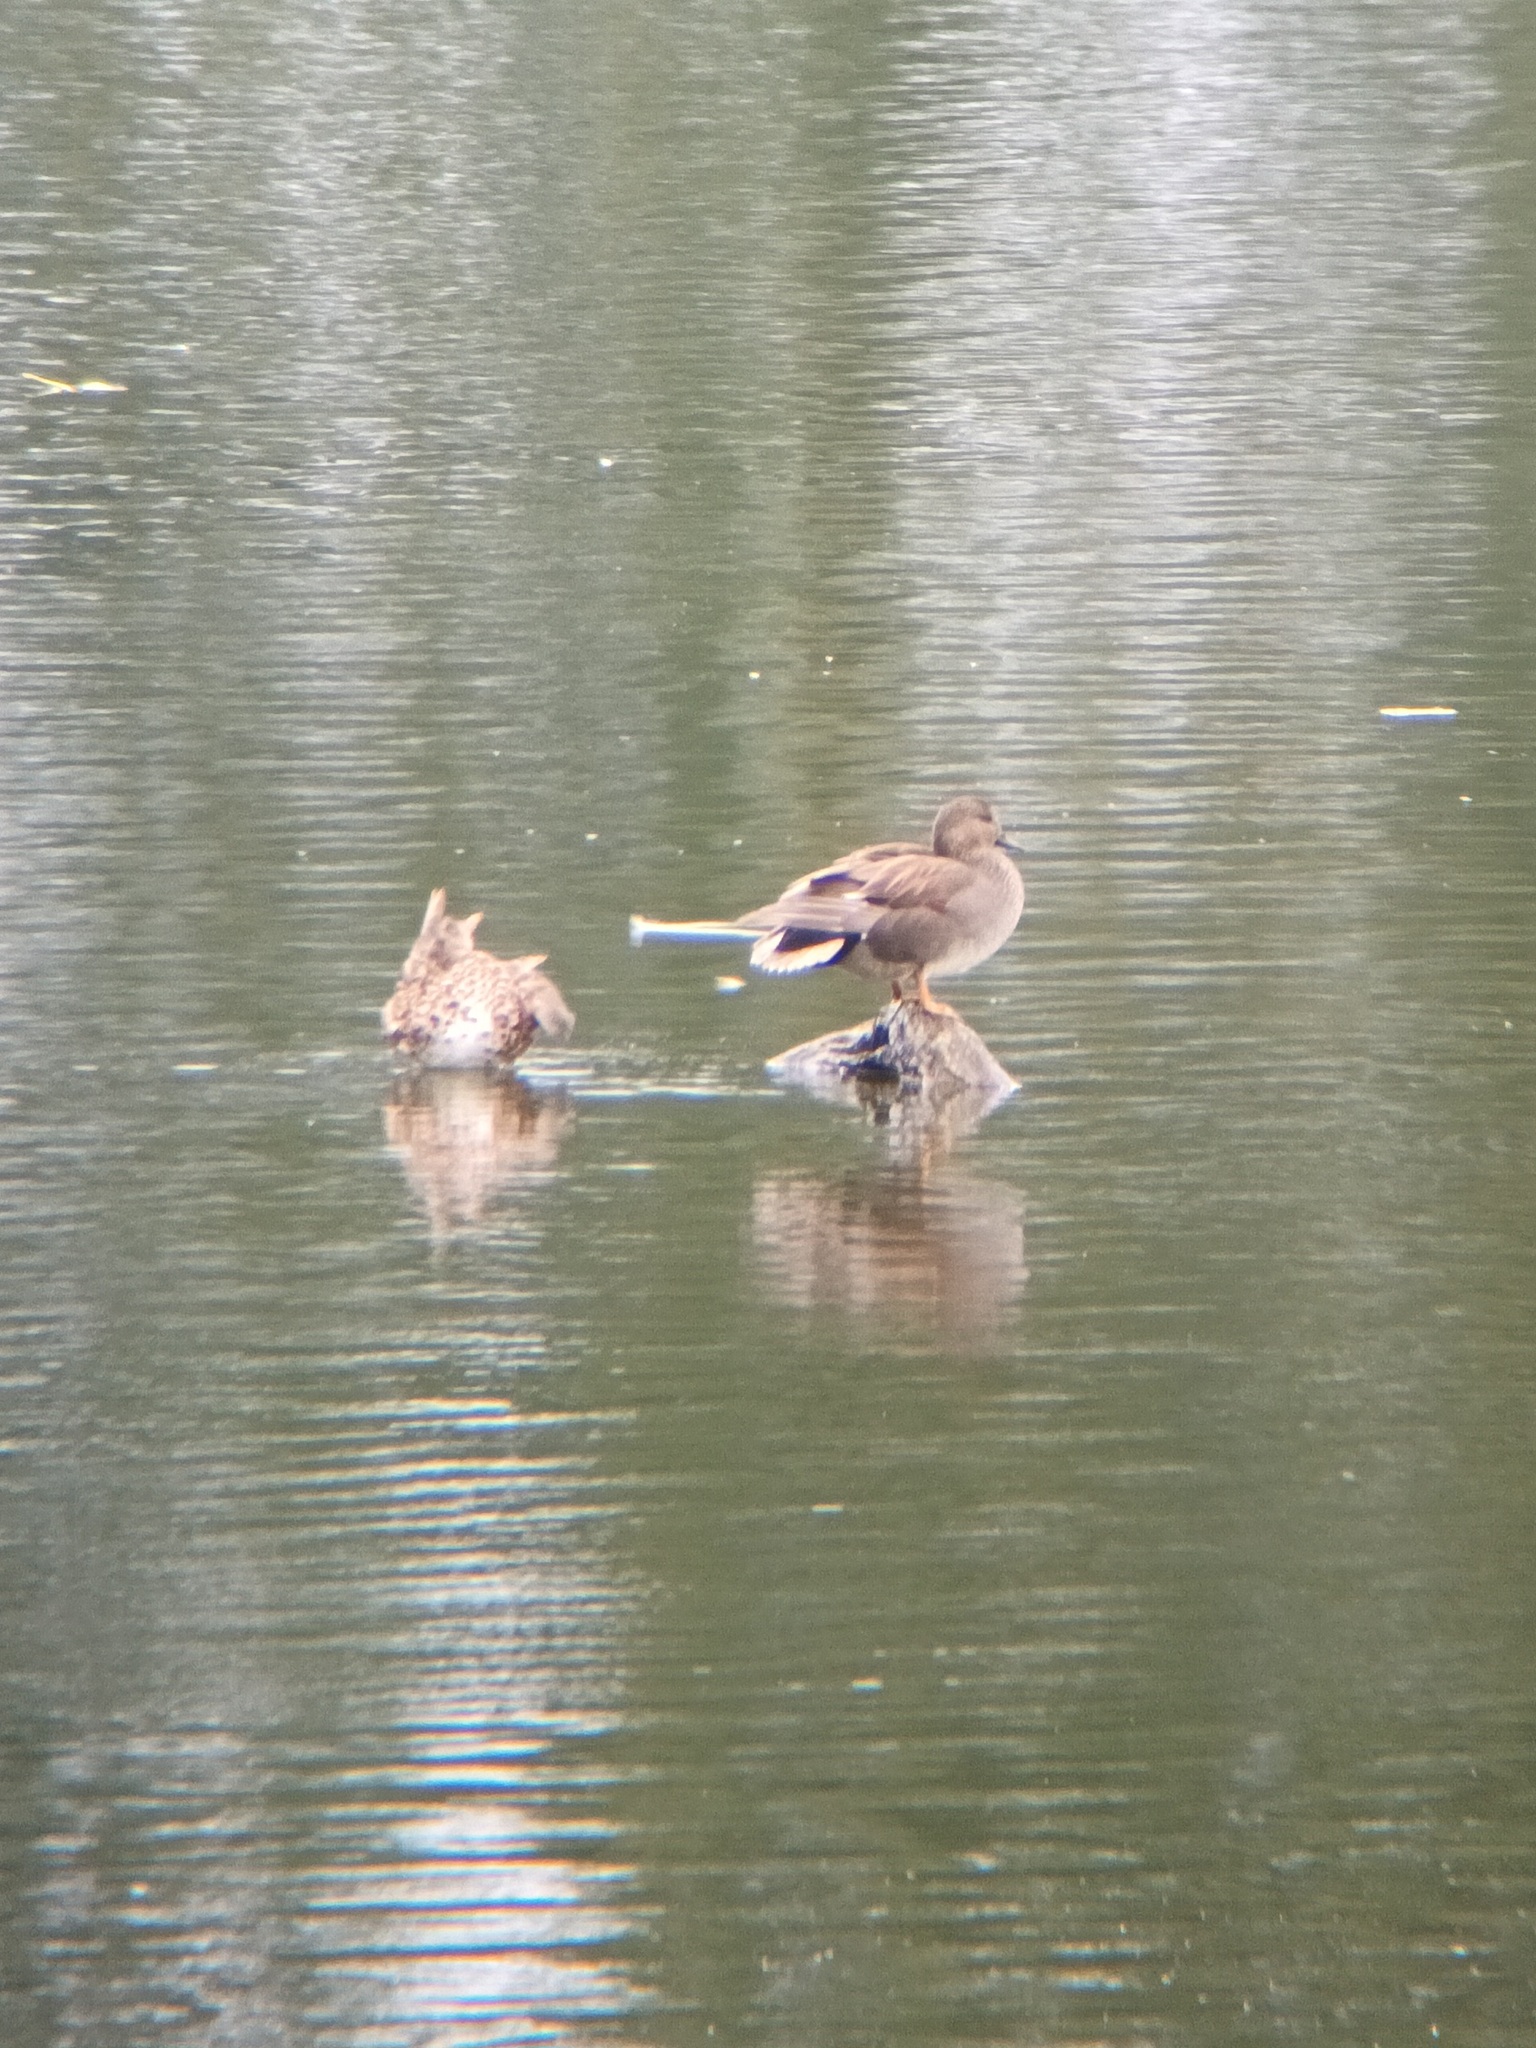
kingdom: Animalia
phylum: Chordata
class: Aves
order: Anseriformes
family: Anatidae
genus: Mareca
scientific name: Mareca strepera
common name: Gadwall
